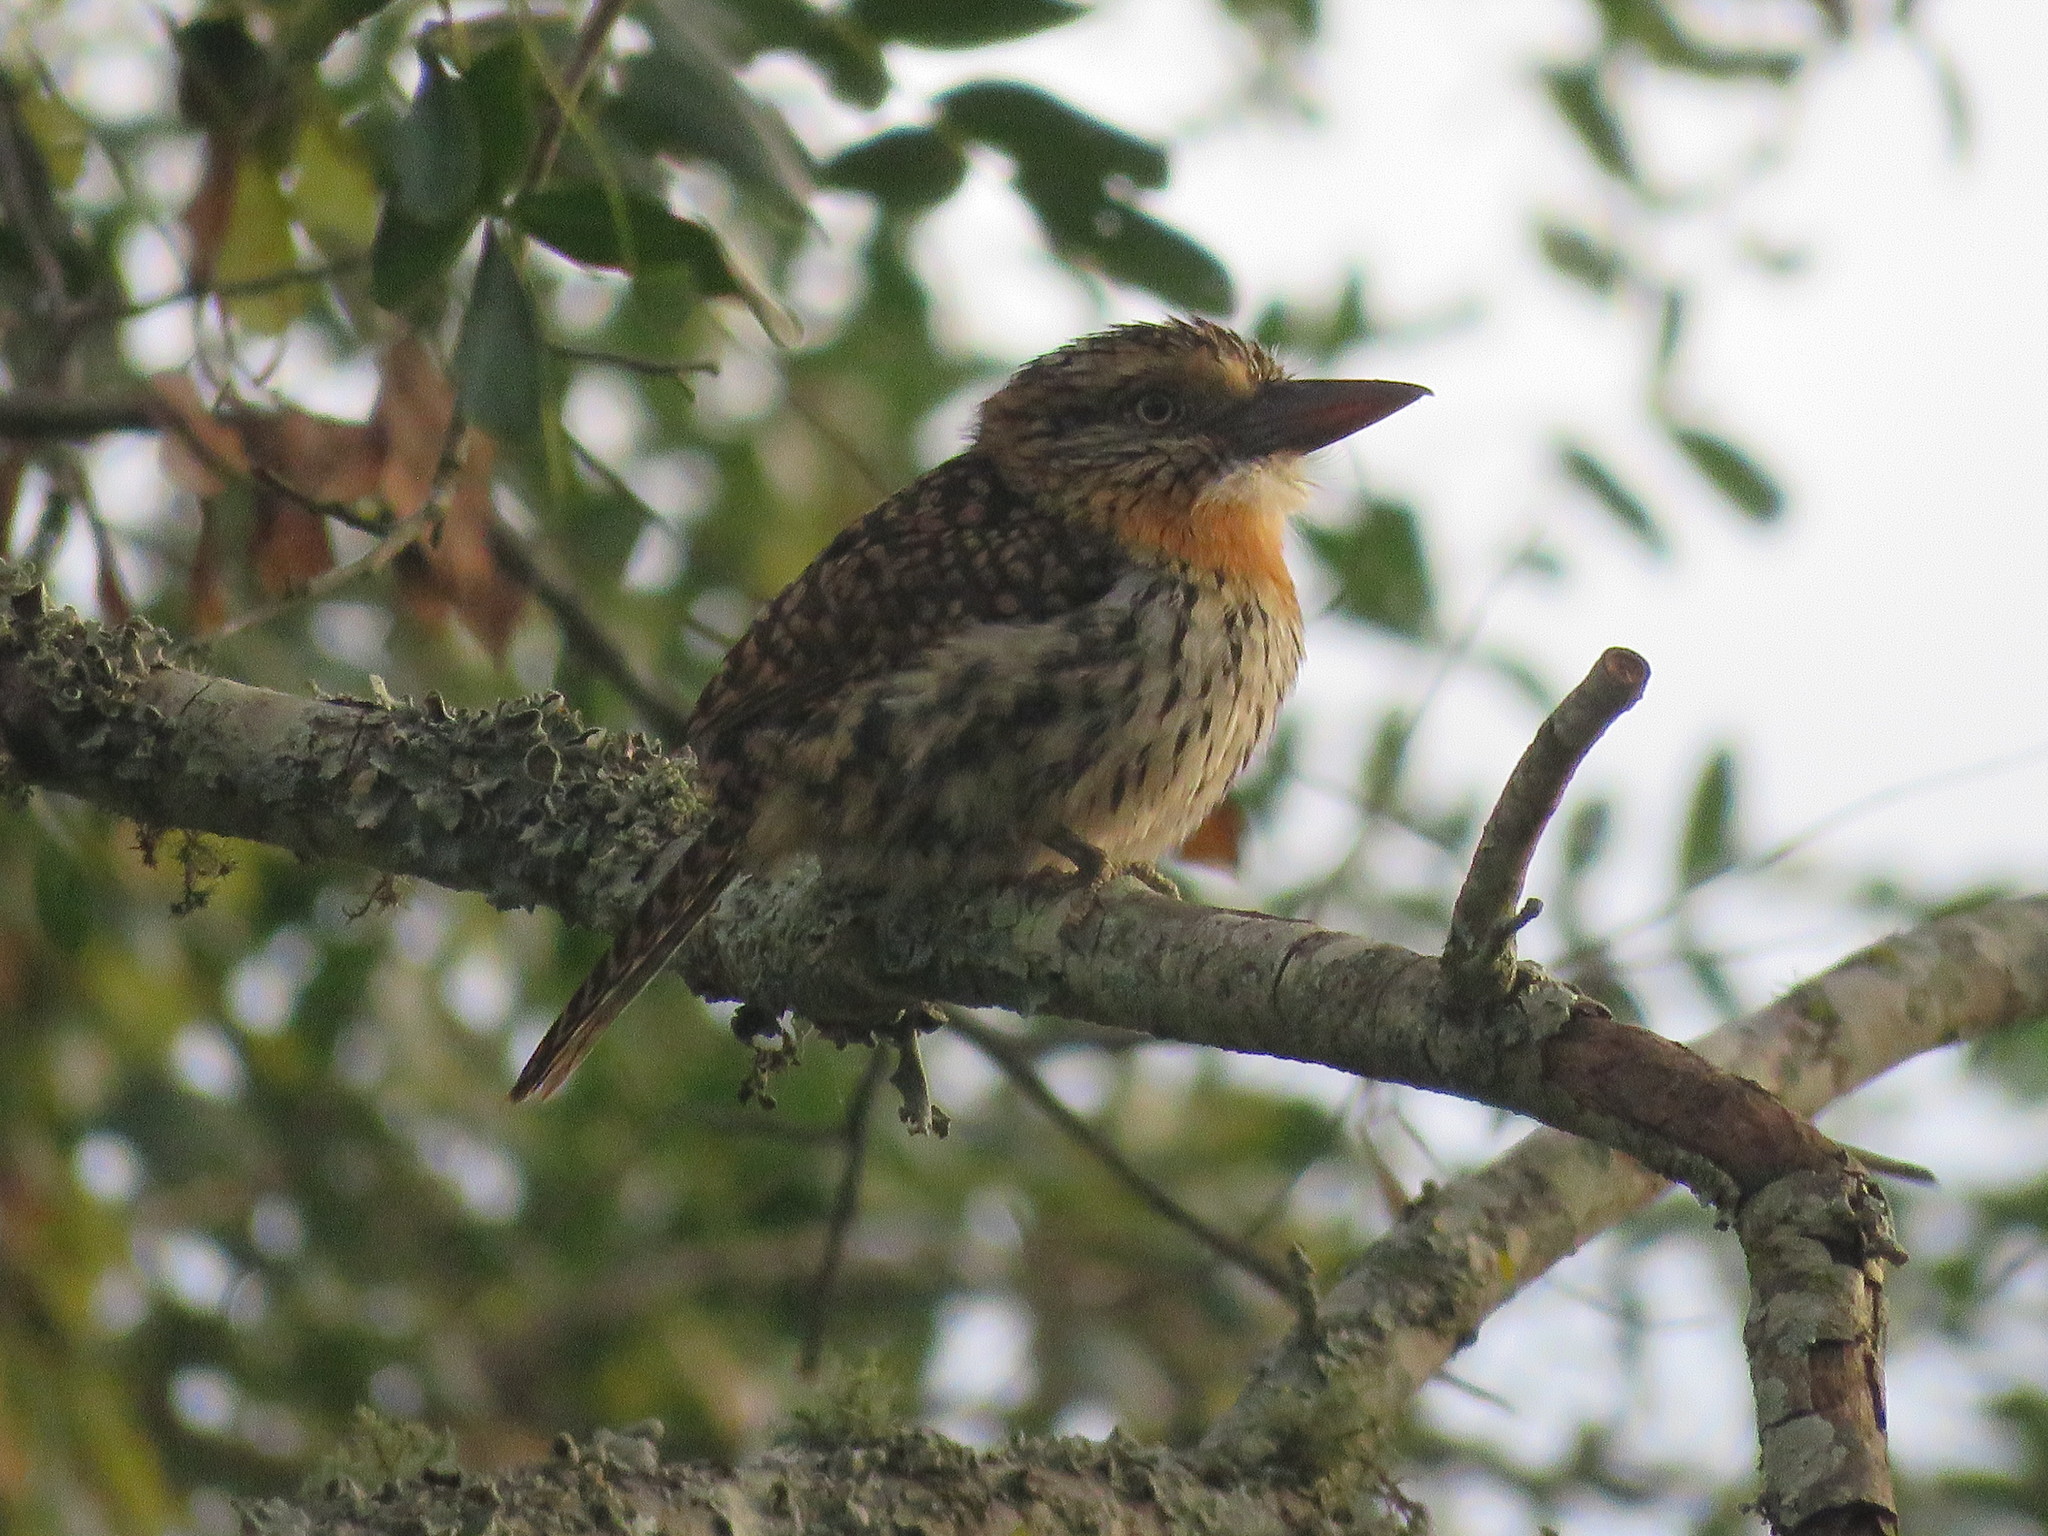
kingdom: Animalia
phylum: Chordata
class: Aves
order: Piciformes
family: Bucconidae
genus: Nystalus
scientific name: Nystalus maculatus
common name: Caatinga puffbird
